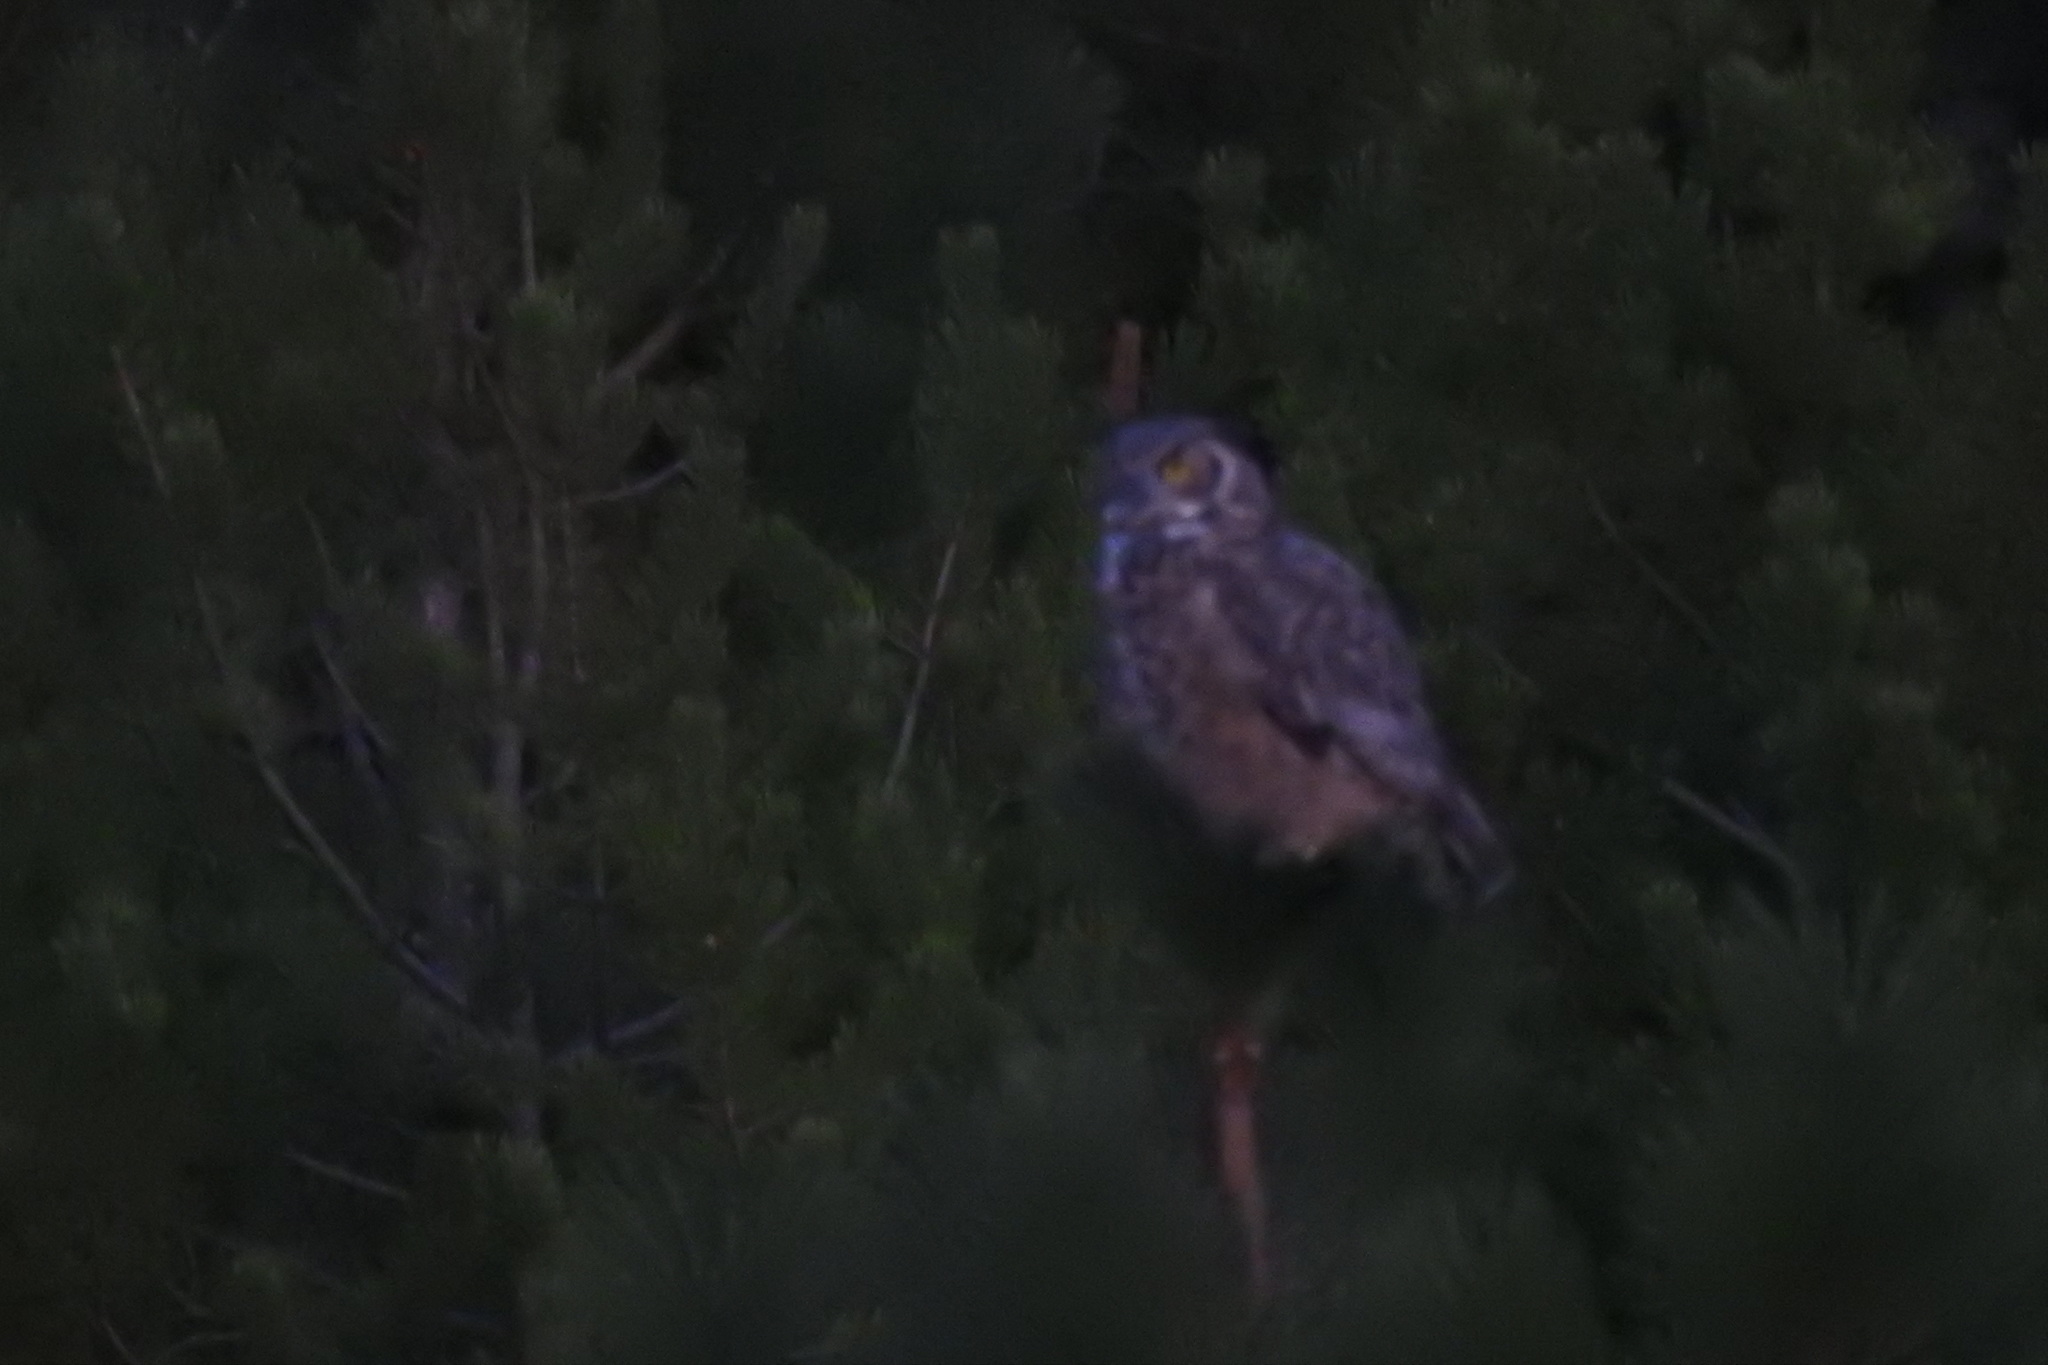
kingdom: Animalia
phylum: Chordata
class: Aves
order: Strigiformes
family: Strigidae
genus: Bubo
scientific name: Bubo virginianus
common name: Great horned owl
